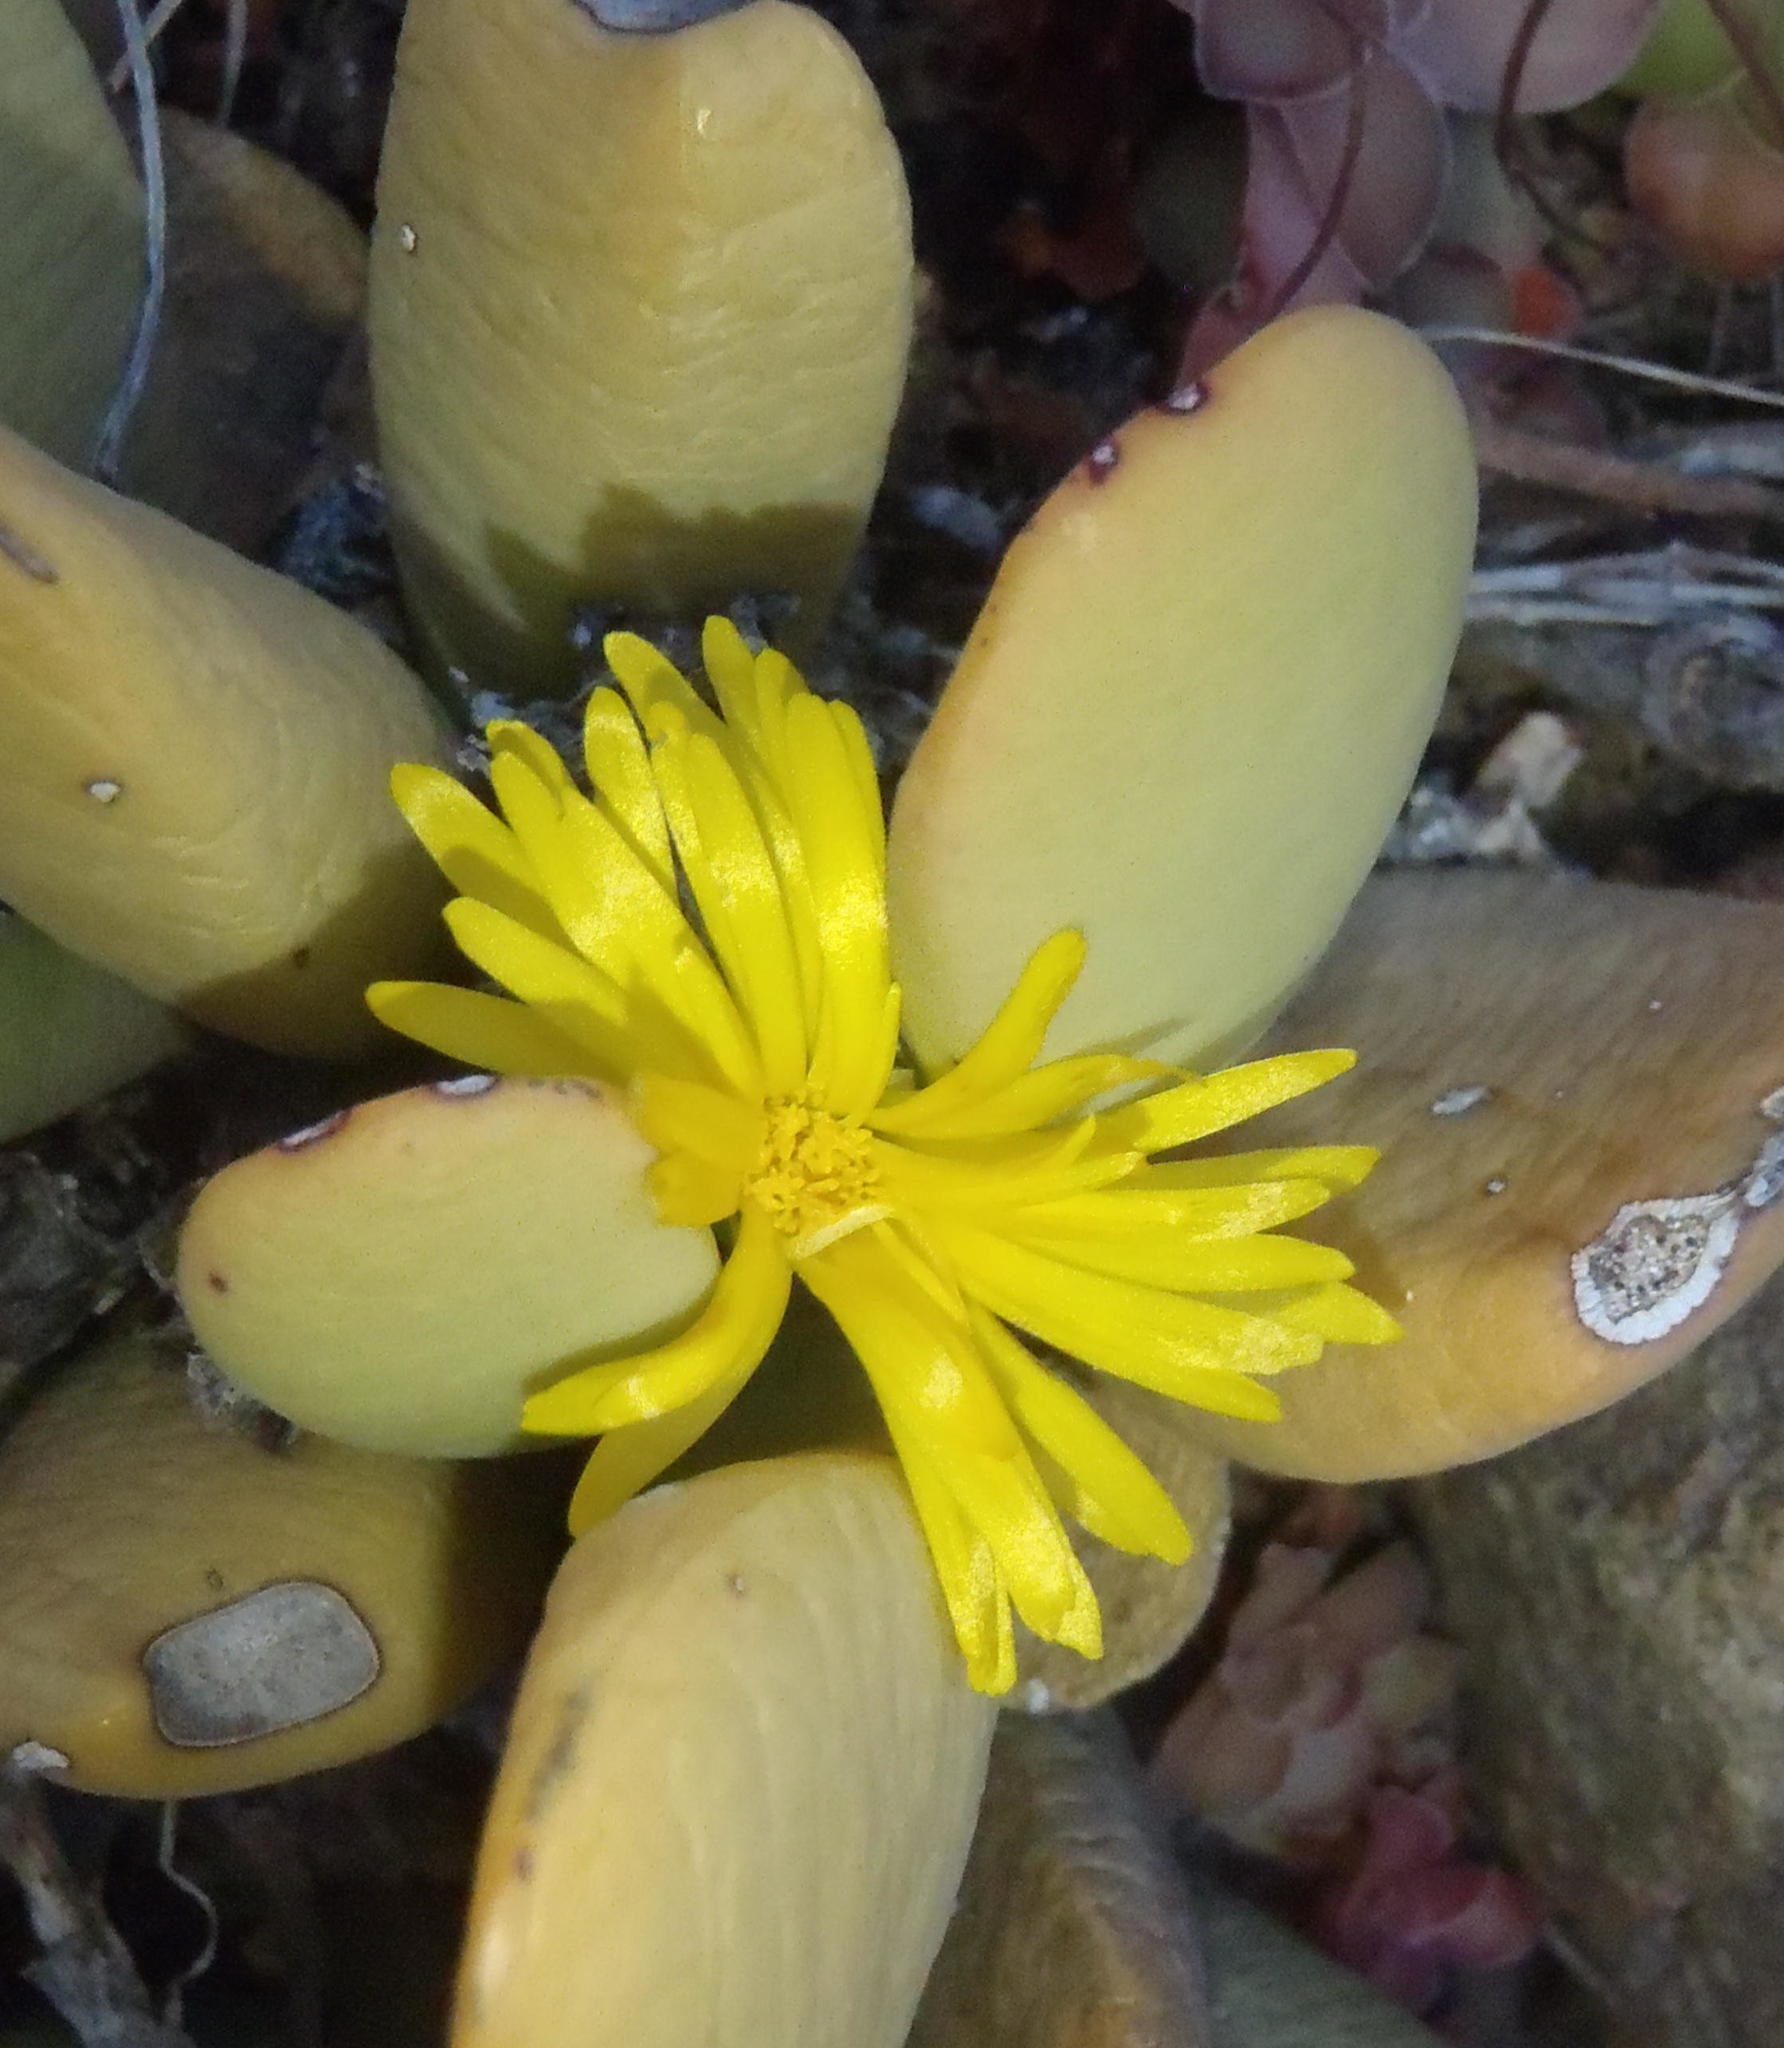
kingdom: Plantae
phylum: Tracheophyta
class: Magnoliopsida
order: Caryophyllales
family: Aizoaceae
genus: Bijlia
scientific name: Bijlia tugwelliae
